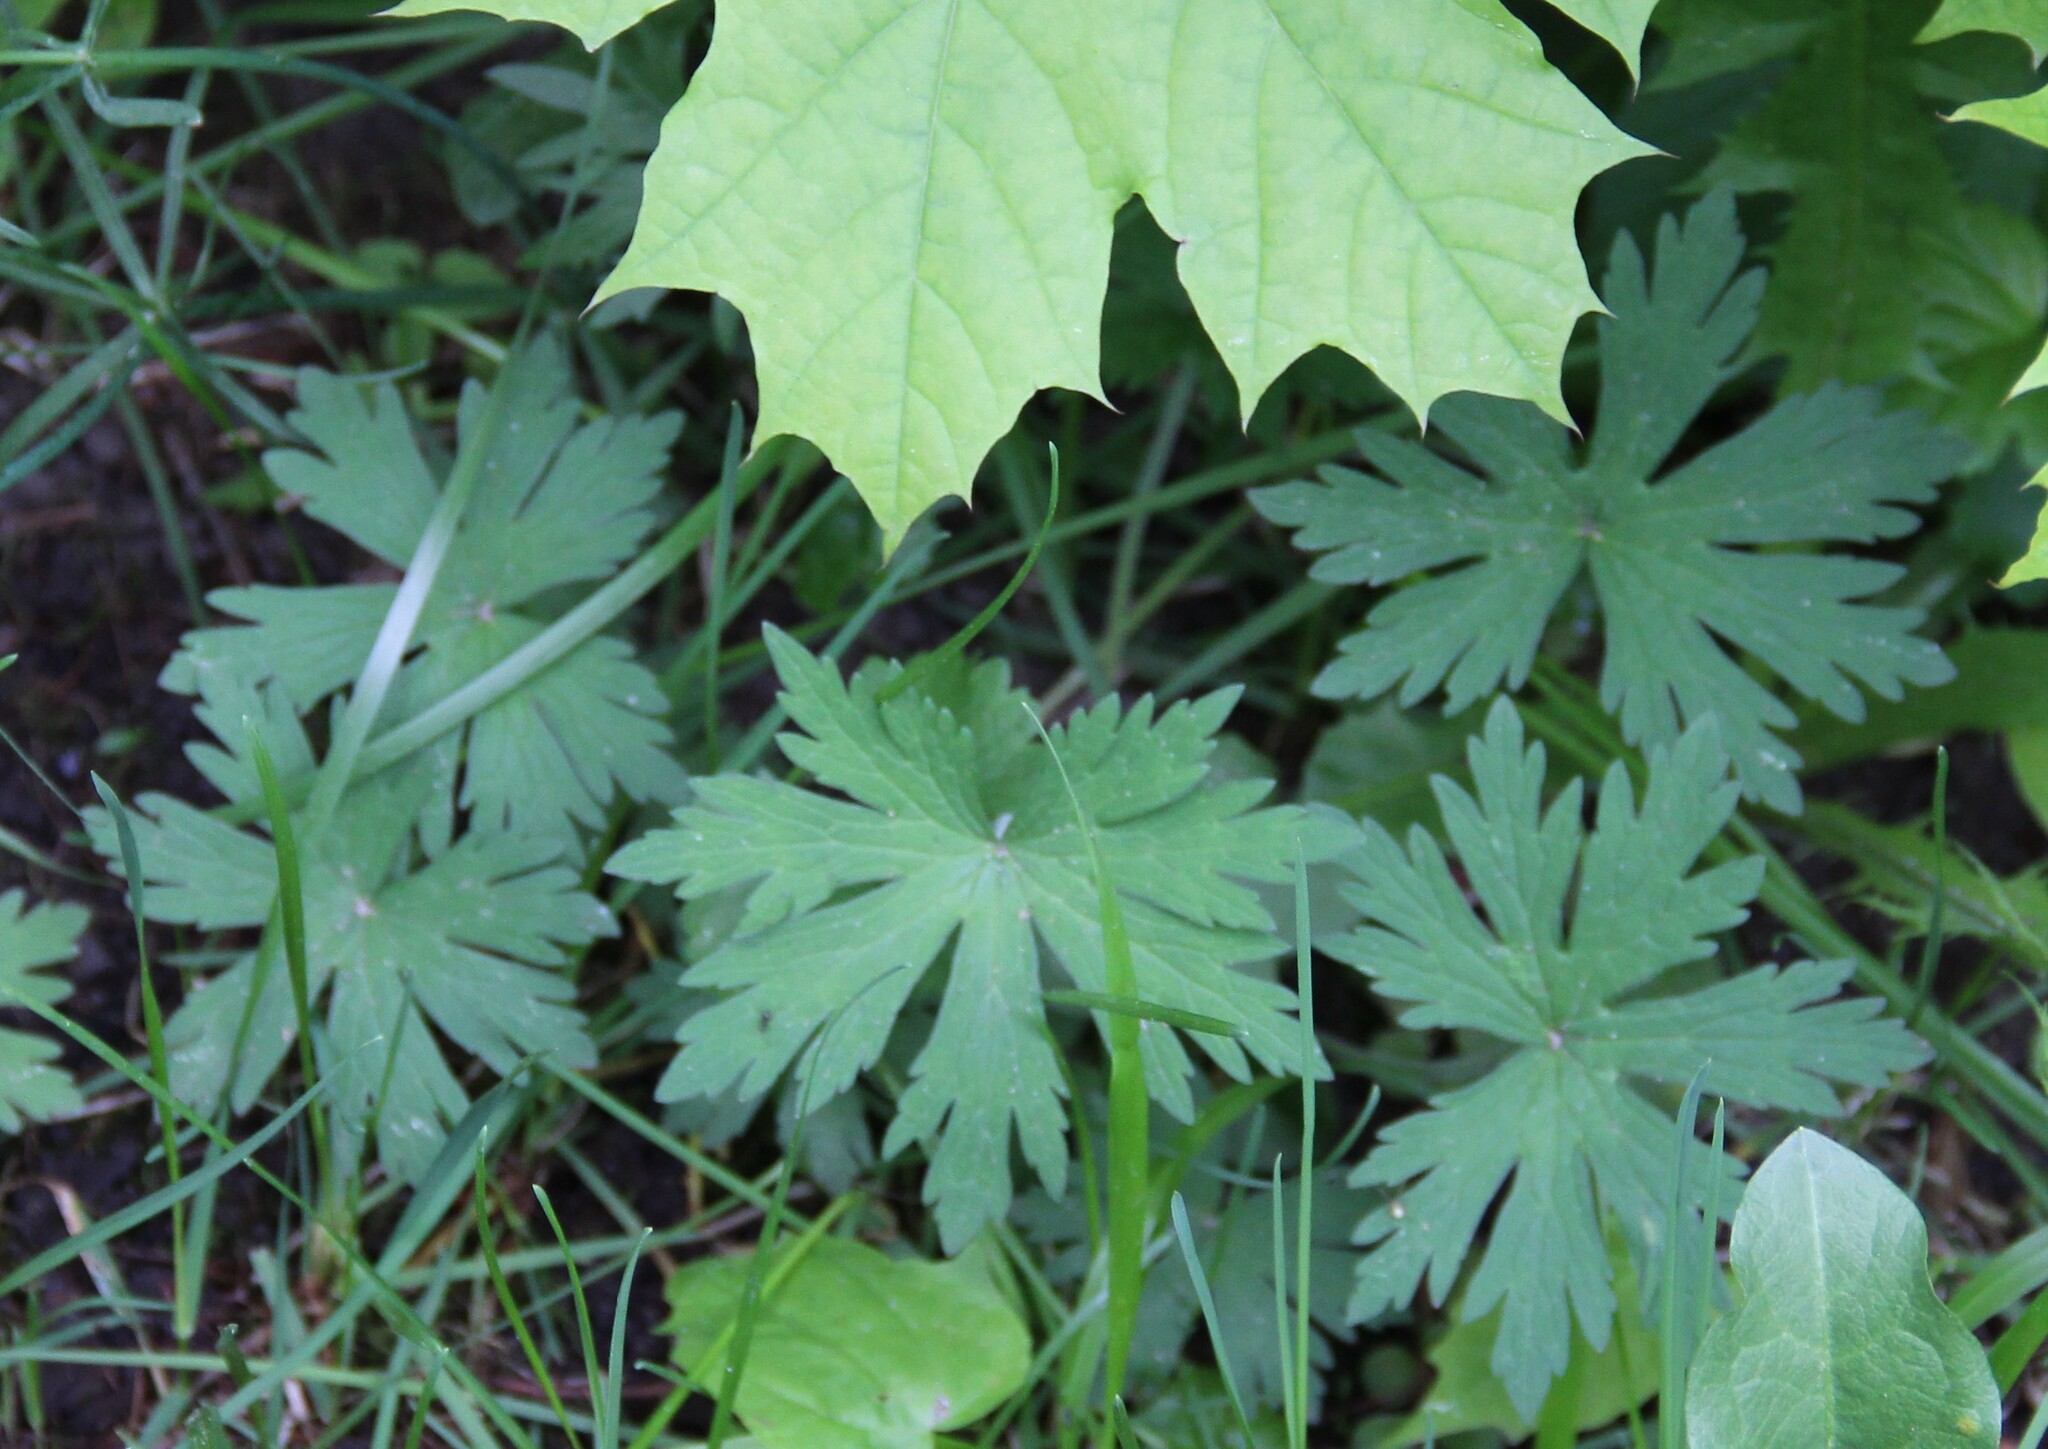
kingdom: Plantae
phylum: Tracheophyta
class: Magnoliopsida
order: Geraniales
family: Geraniaceae
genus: Geranium
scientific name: Geranium pratense
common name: Meadow crane's-bill
